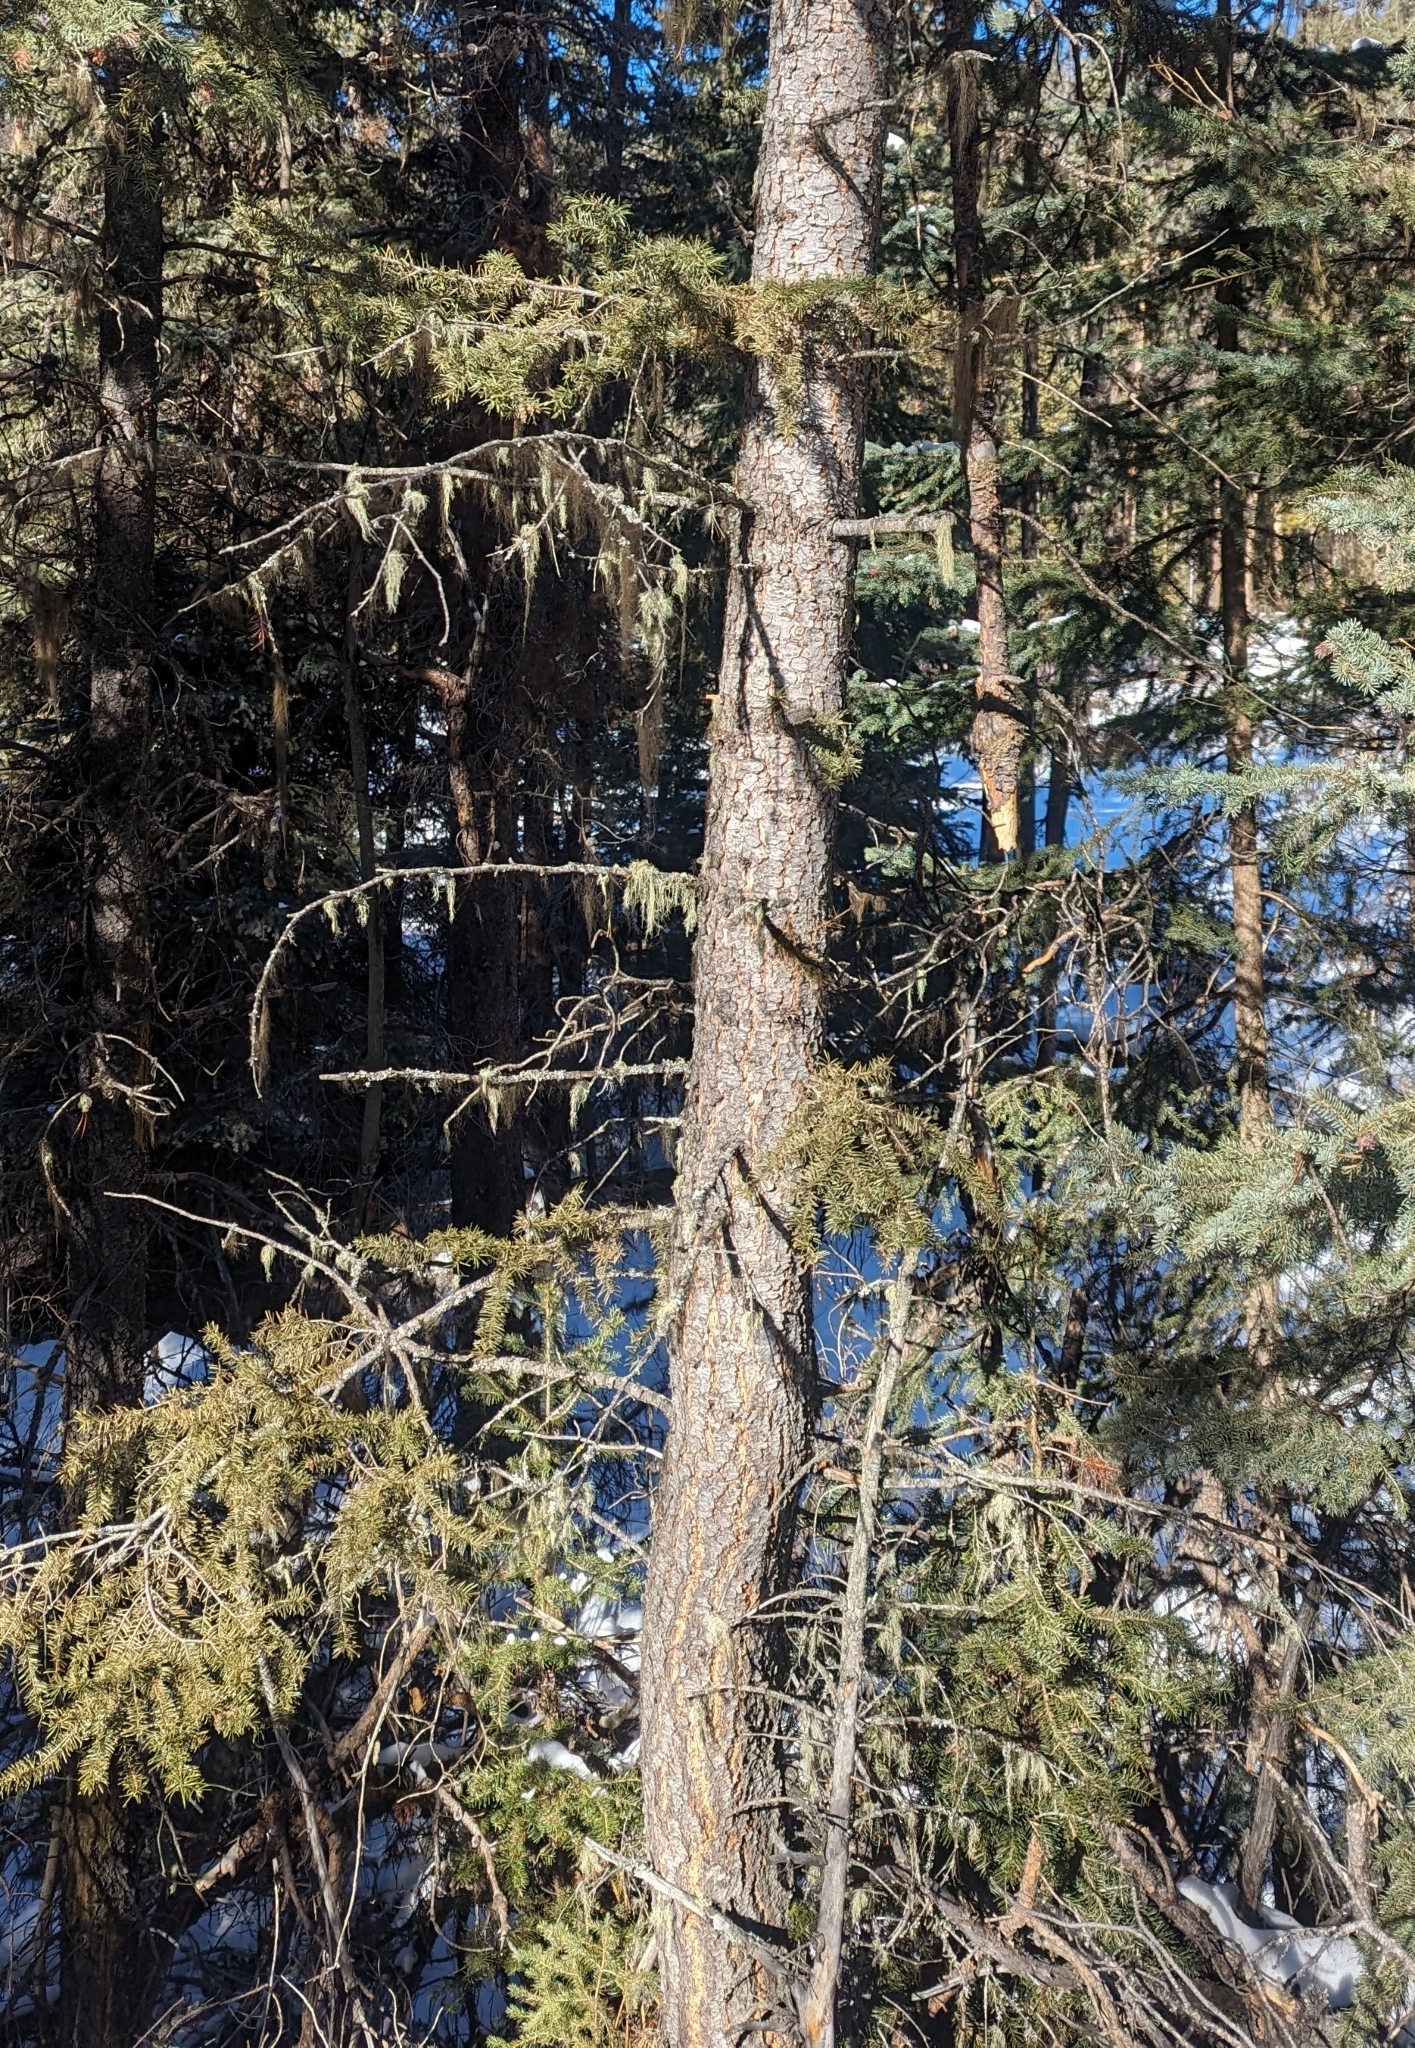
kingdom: Plantae
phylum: Tracheophyta
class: Pinopsida
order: Pinales
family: Pinaceae
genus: Pseudotsuga
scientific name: Pseudotsuga menziesii
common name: Douglas fir
